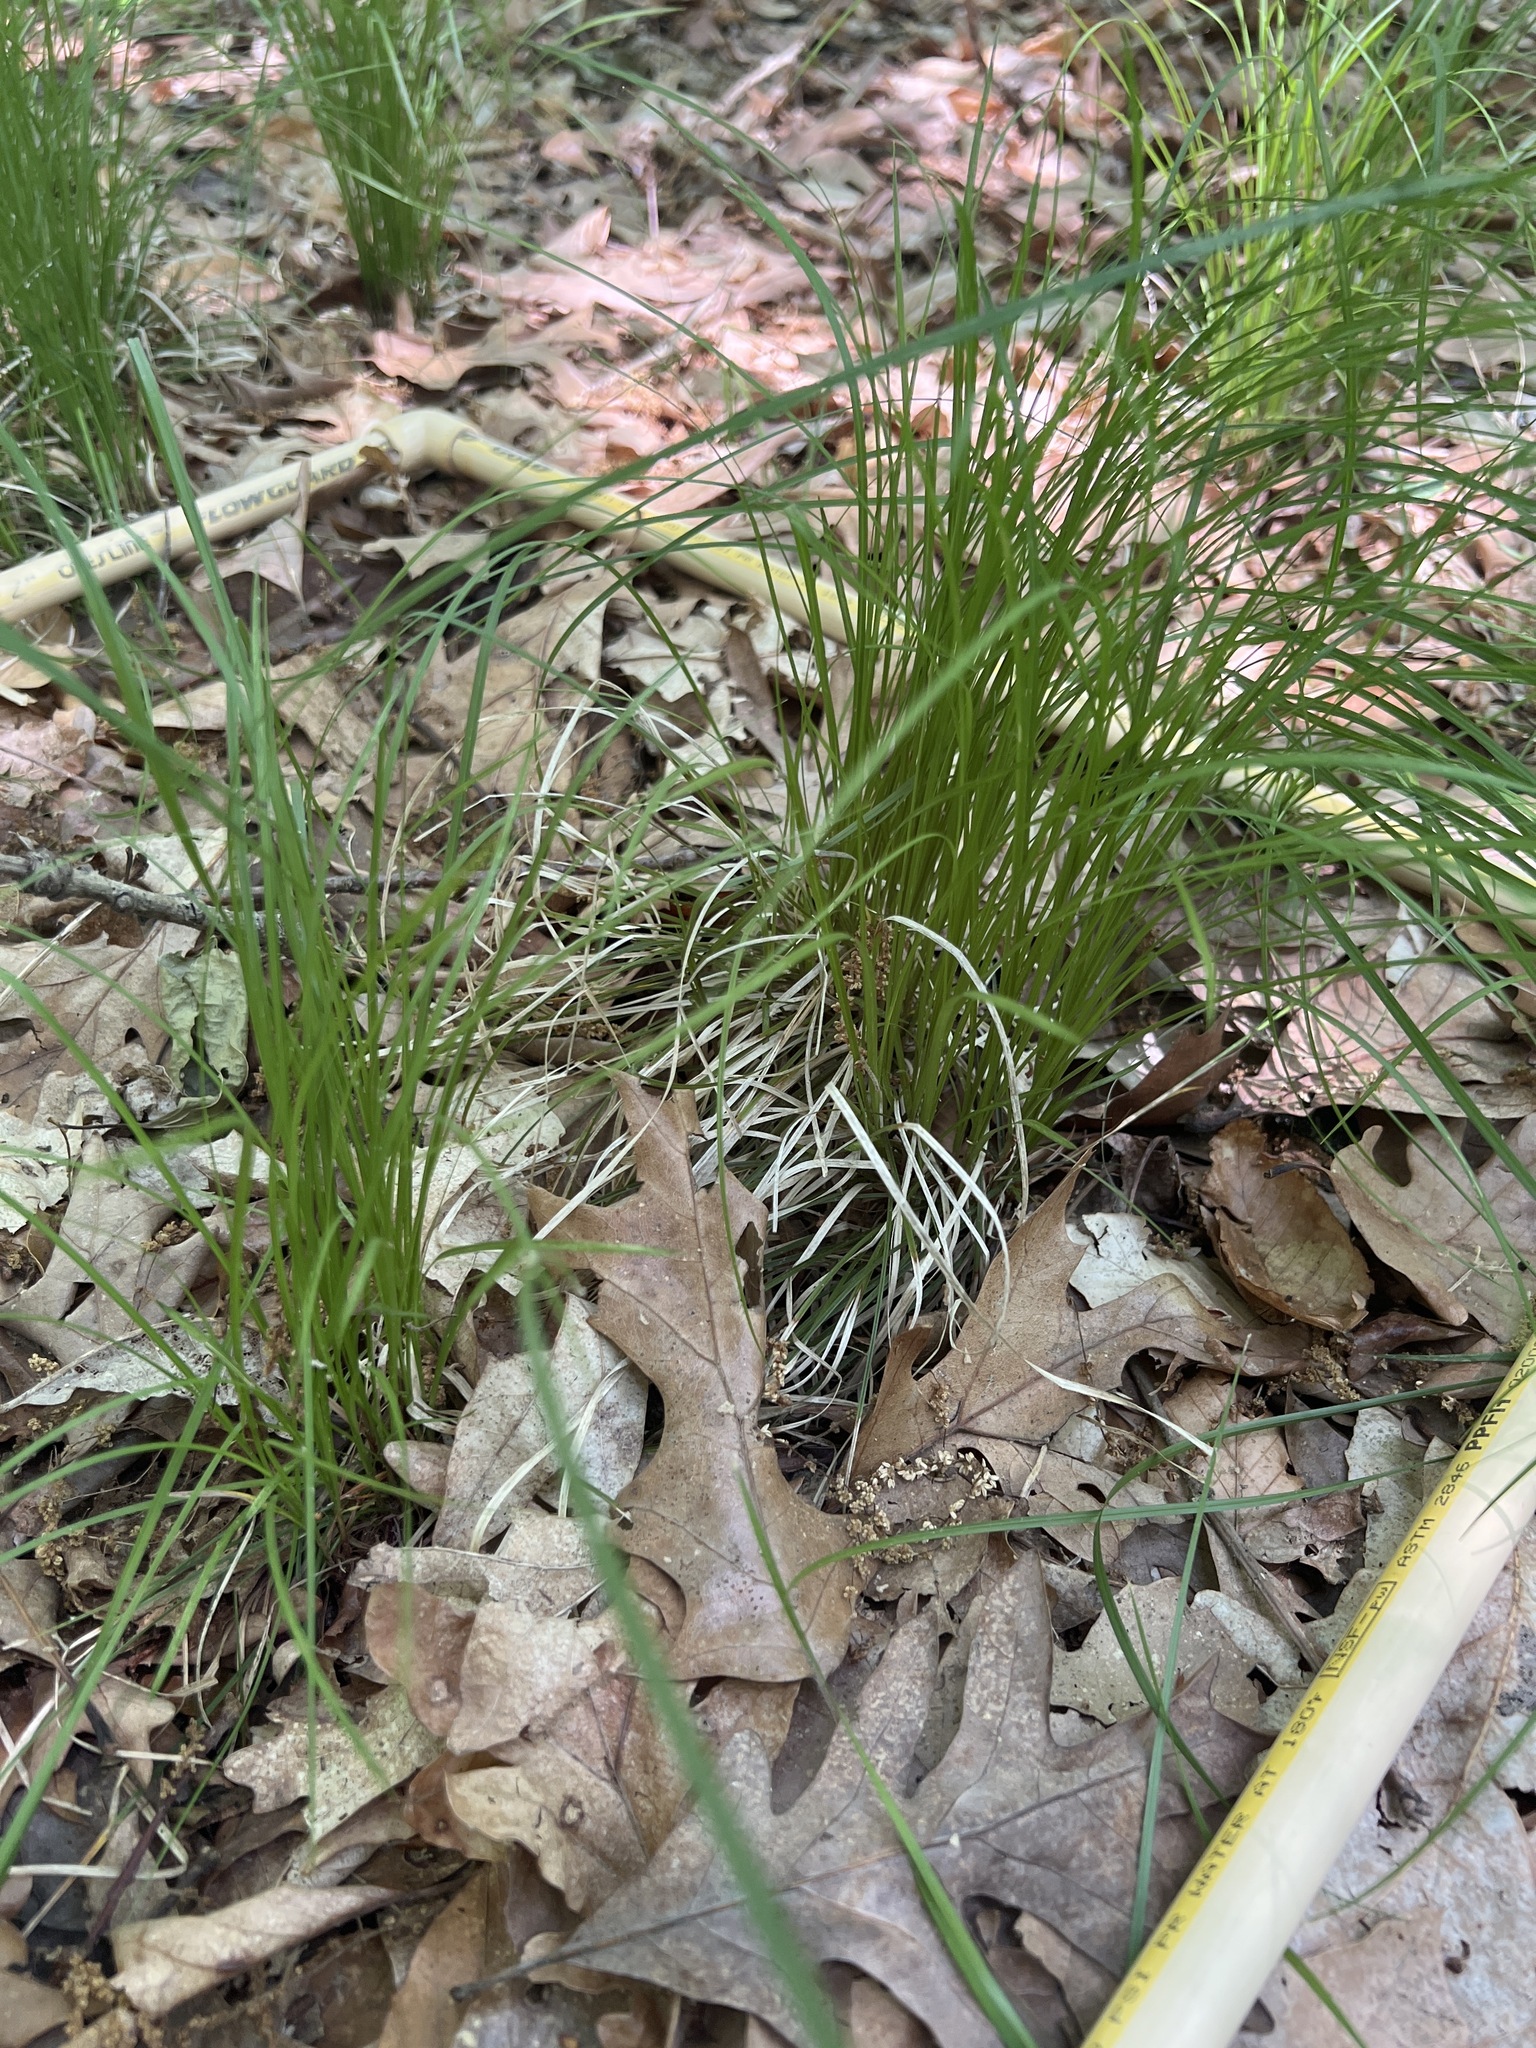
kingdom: Plantae
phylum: Tracheophyta
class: Liliopsida
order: Poales
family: Cyperaceae
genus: Carex
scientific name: Carex
